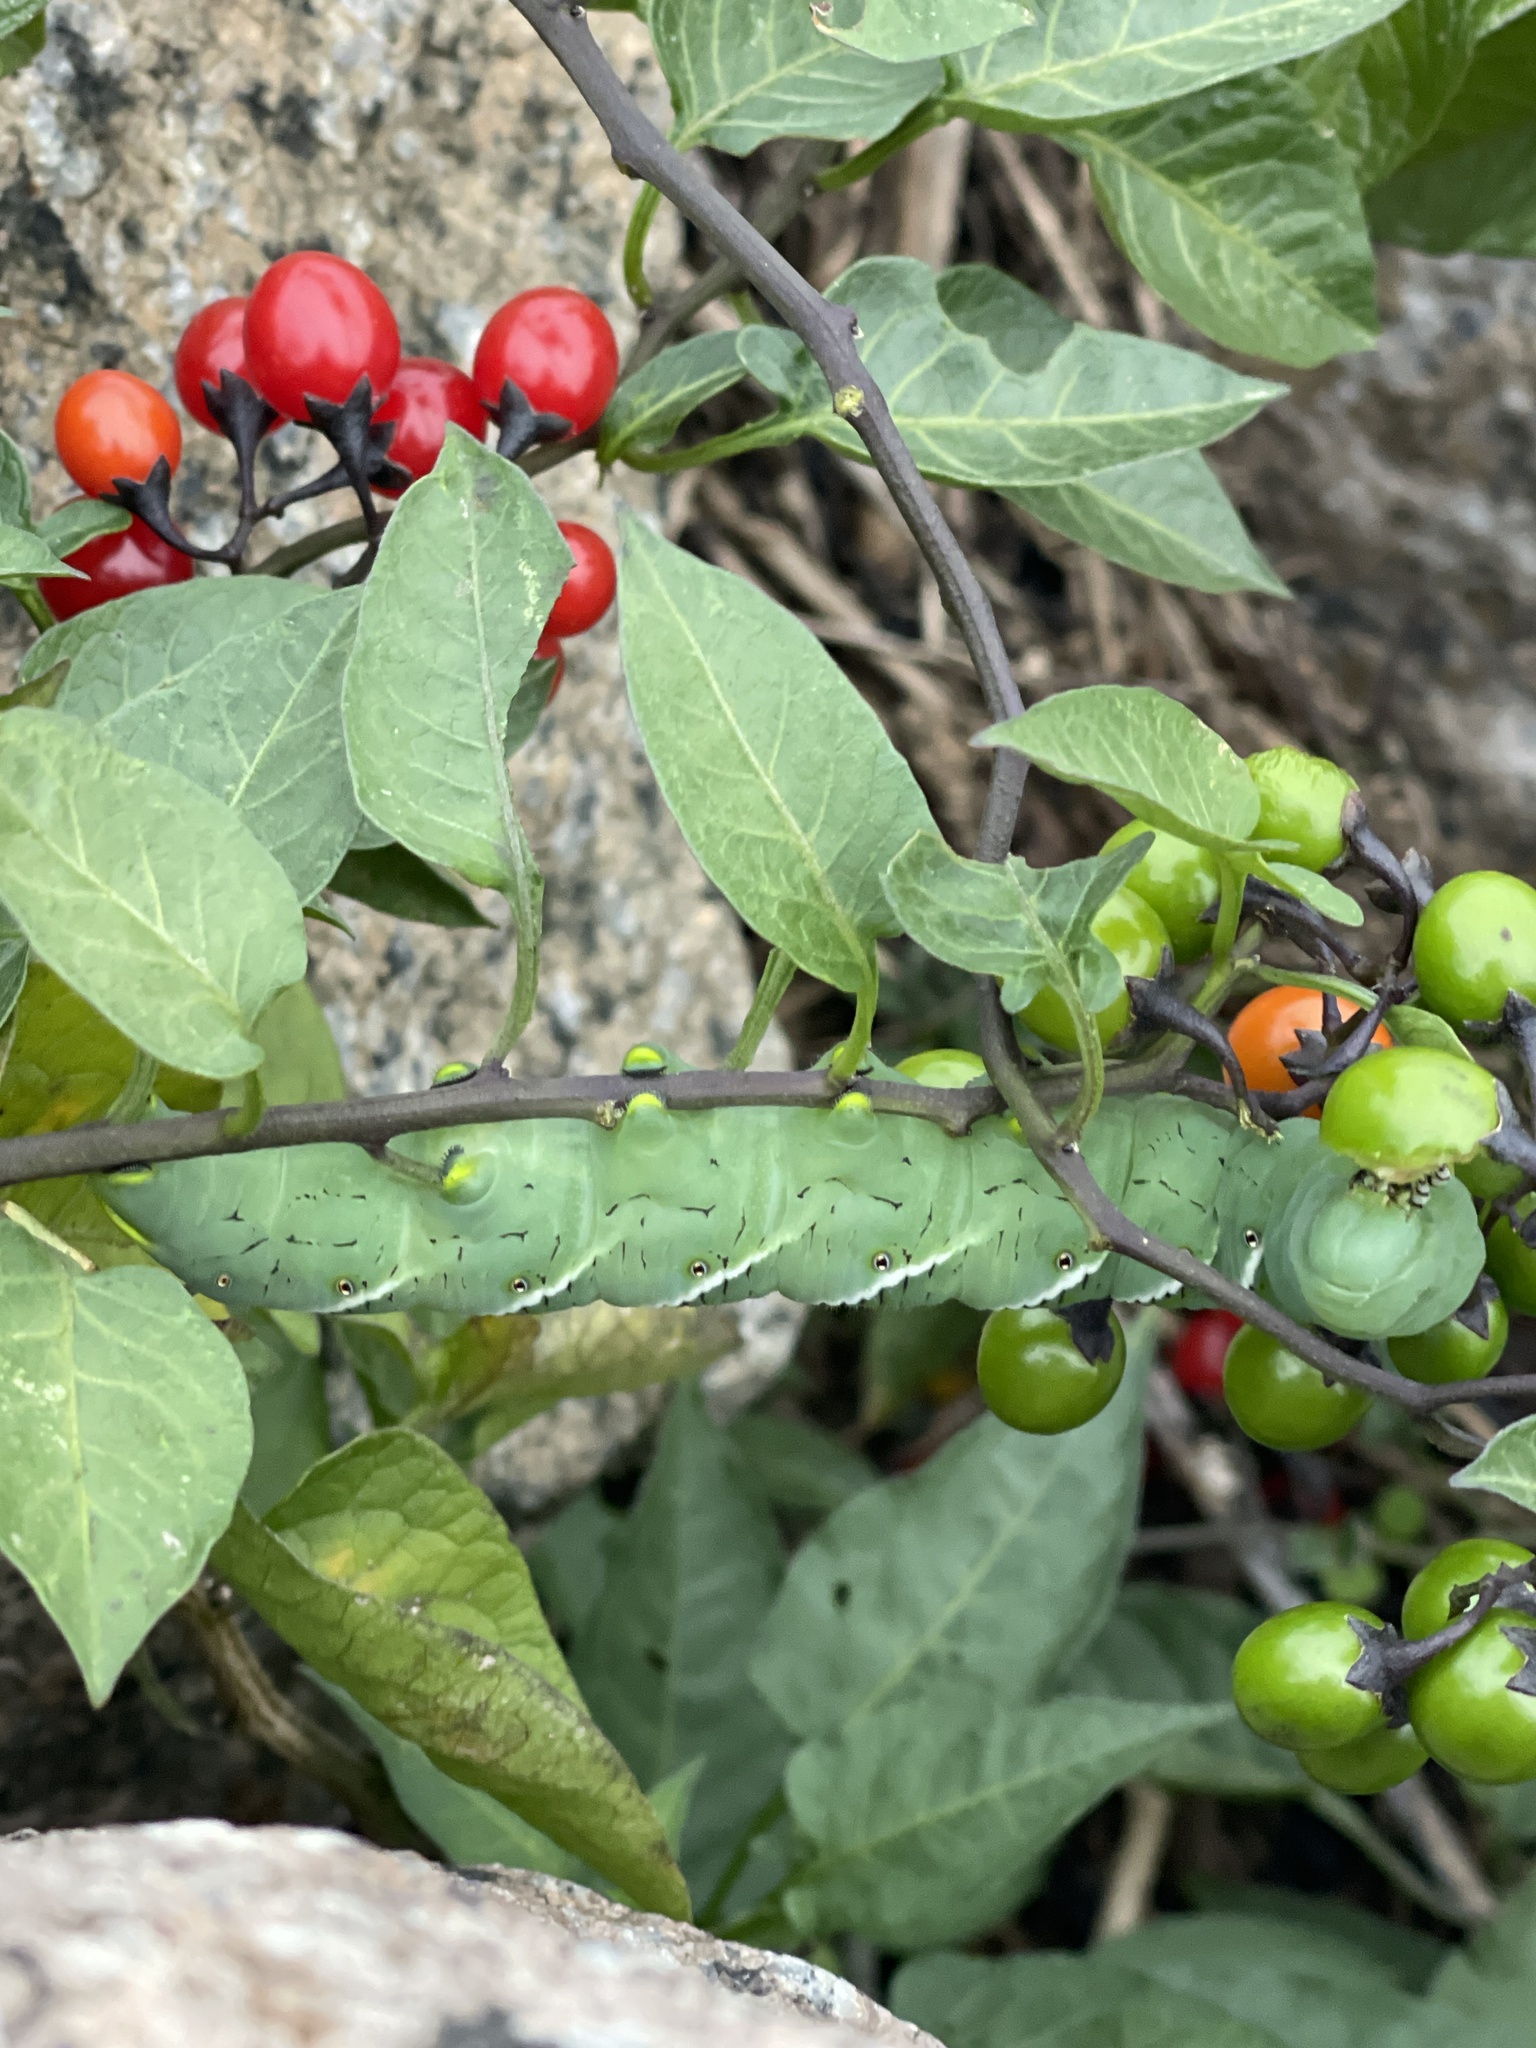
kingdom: Animalia
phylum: Arthropoda
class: Insecta
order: Lepidoptera
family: Sphingidae
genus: Manduca
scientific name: Manduca sexta
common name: Carolina sphinx
